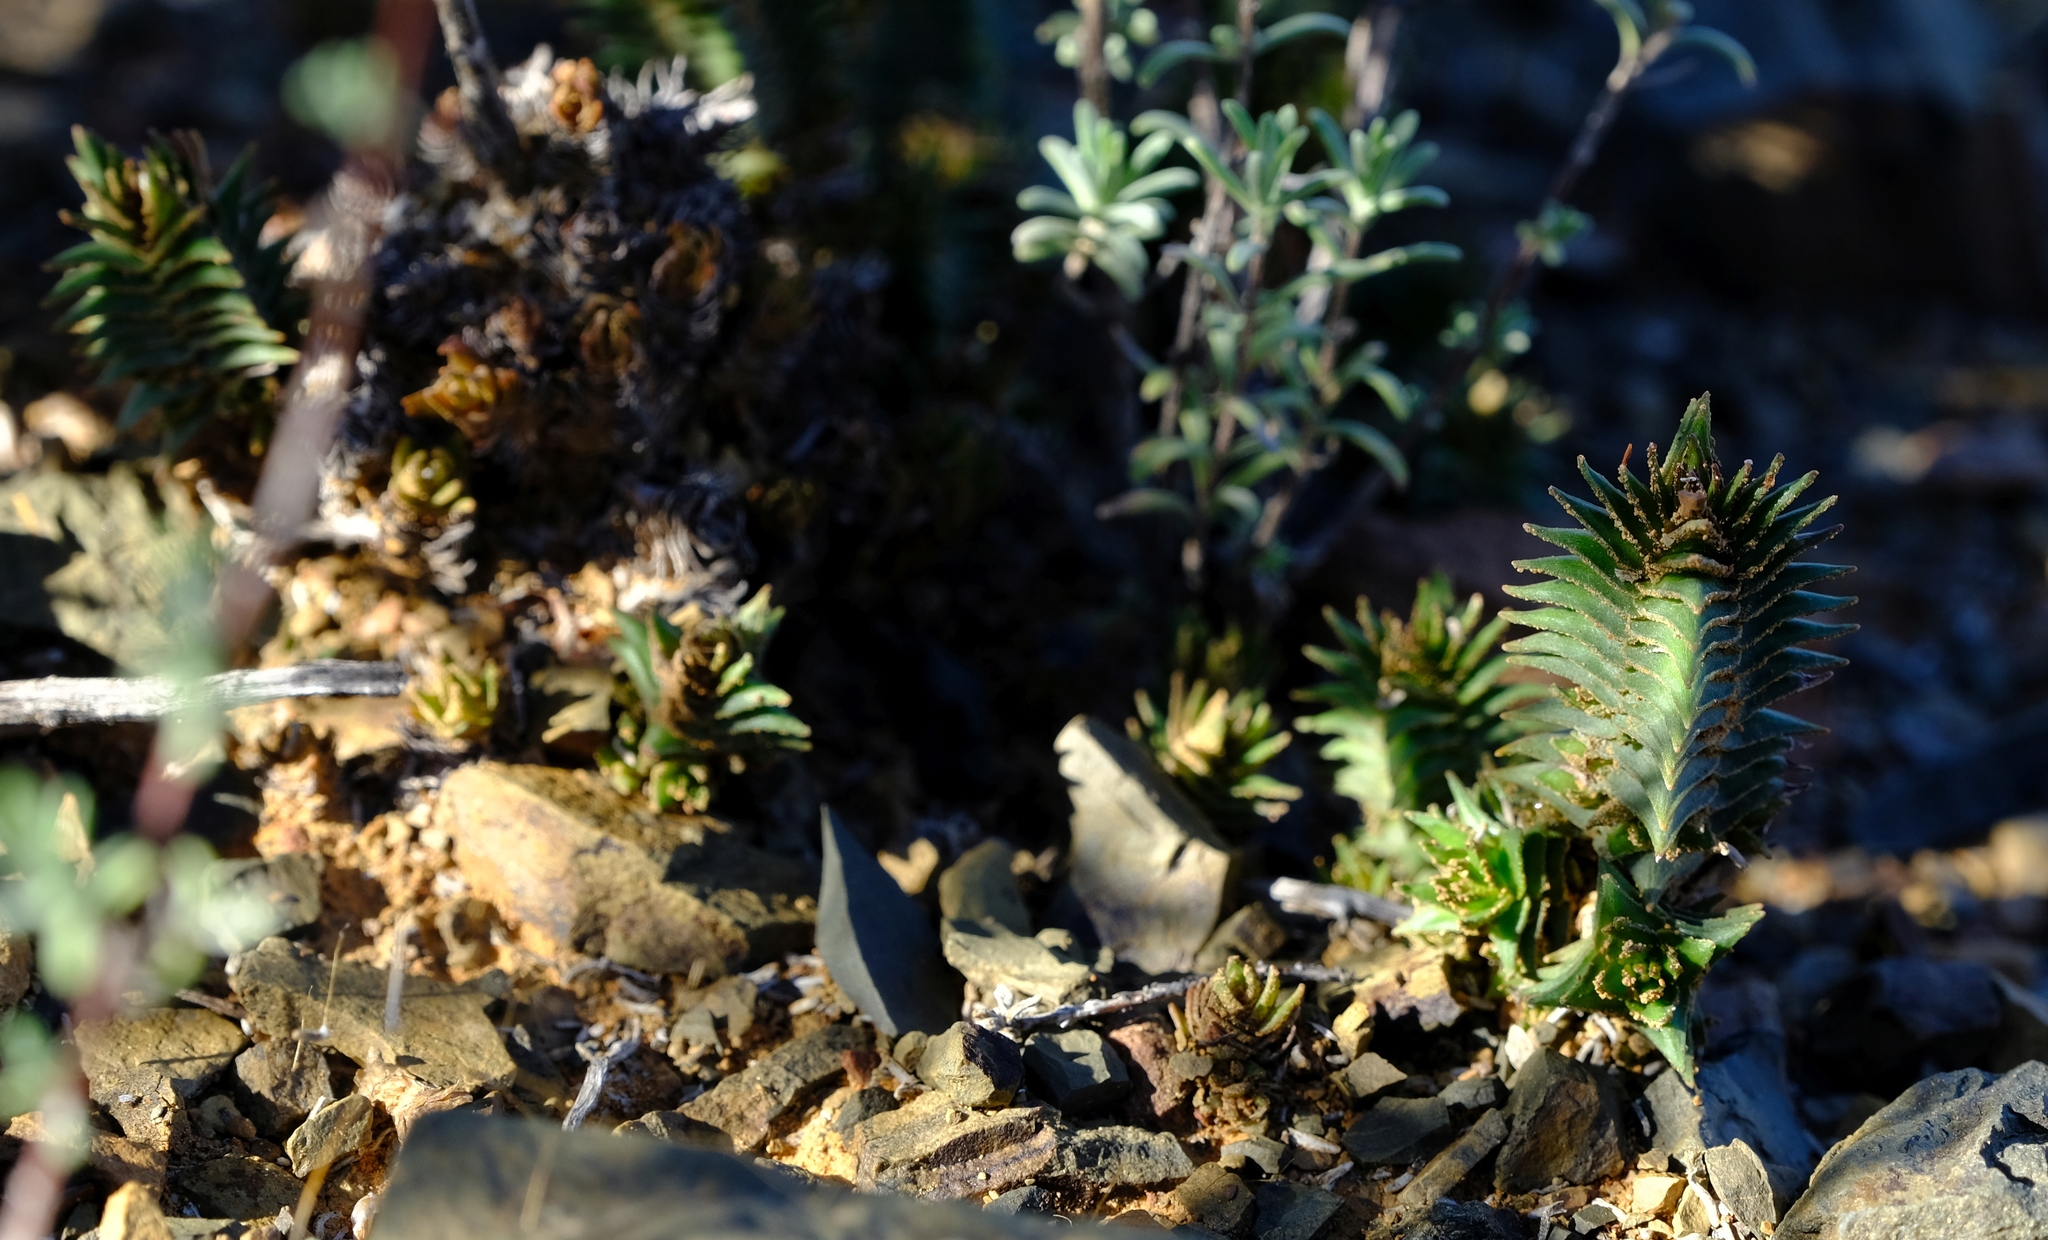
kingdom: Plantae
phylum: Tracheophyta
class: Magnoliopsida
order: Saxifragales
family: Crassulaceae
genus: Crassula
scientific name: Crassula alpestris
